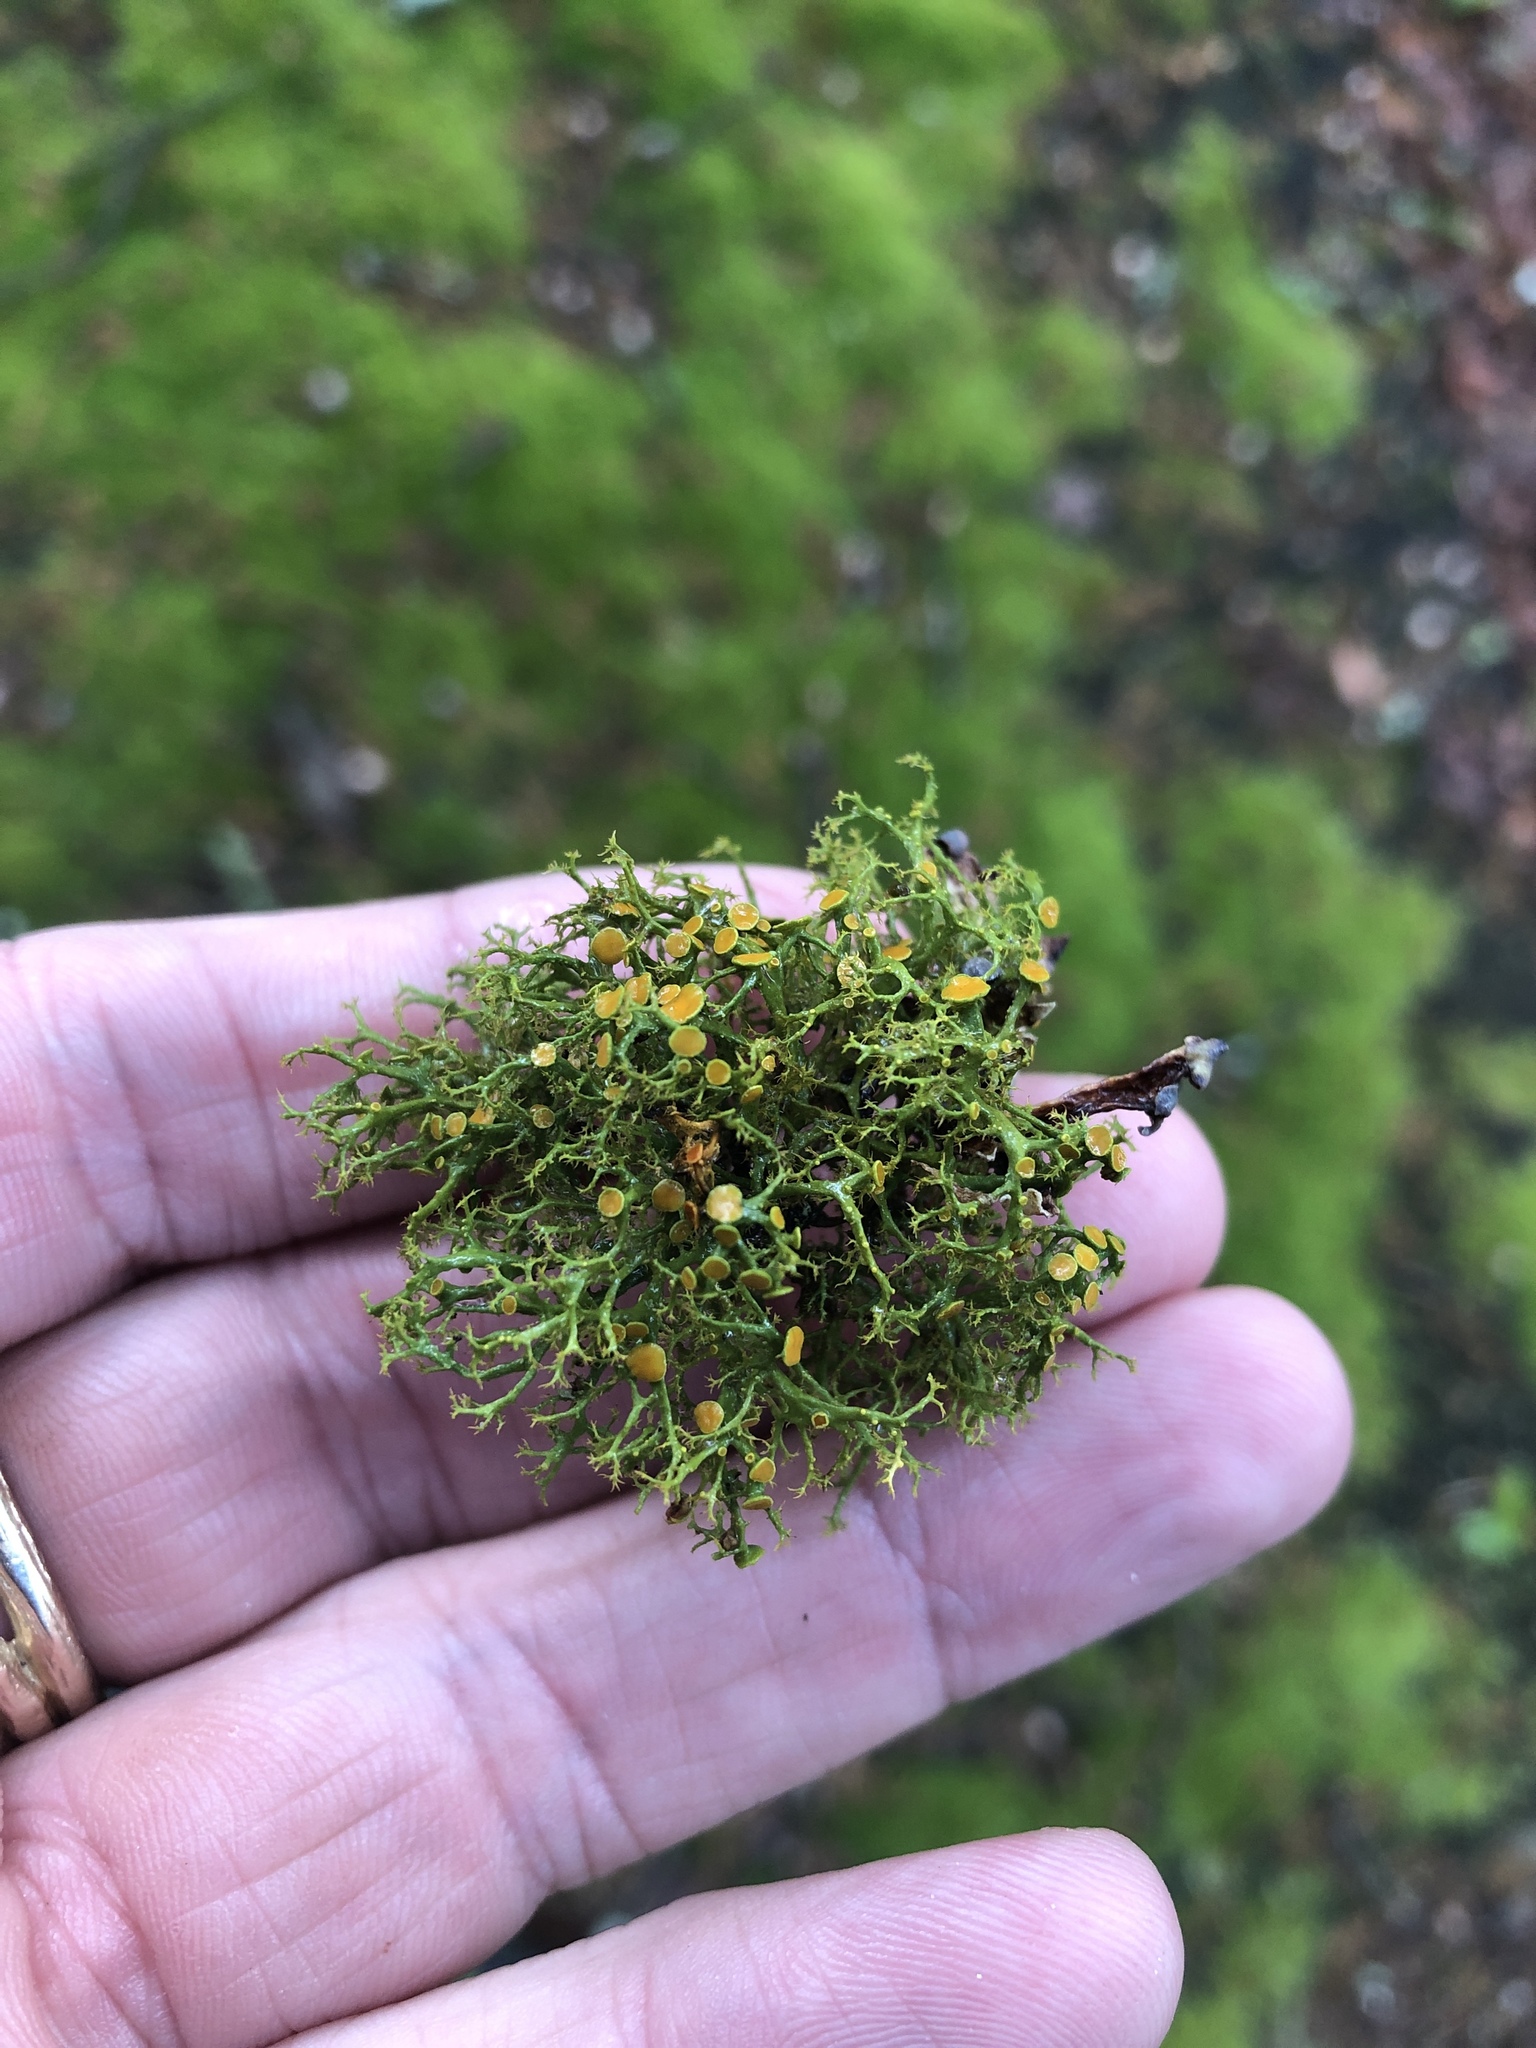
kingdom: Fungi
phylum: Ascomycota
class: Lecanoromycetes
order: Teloschistales
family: Teloschistaceae
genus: Teloschistes
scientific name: Teloschistes exilis
